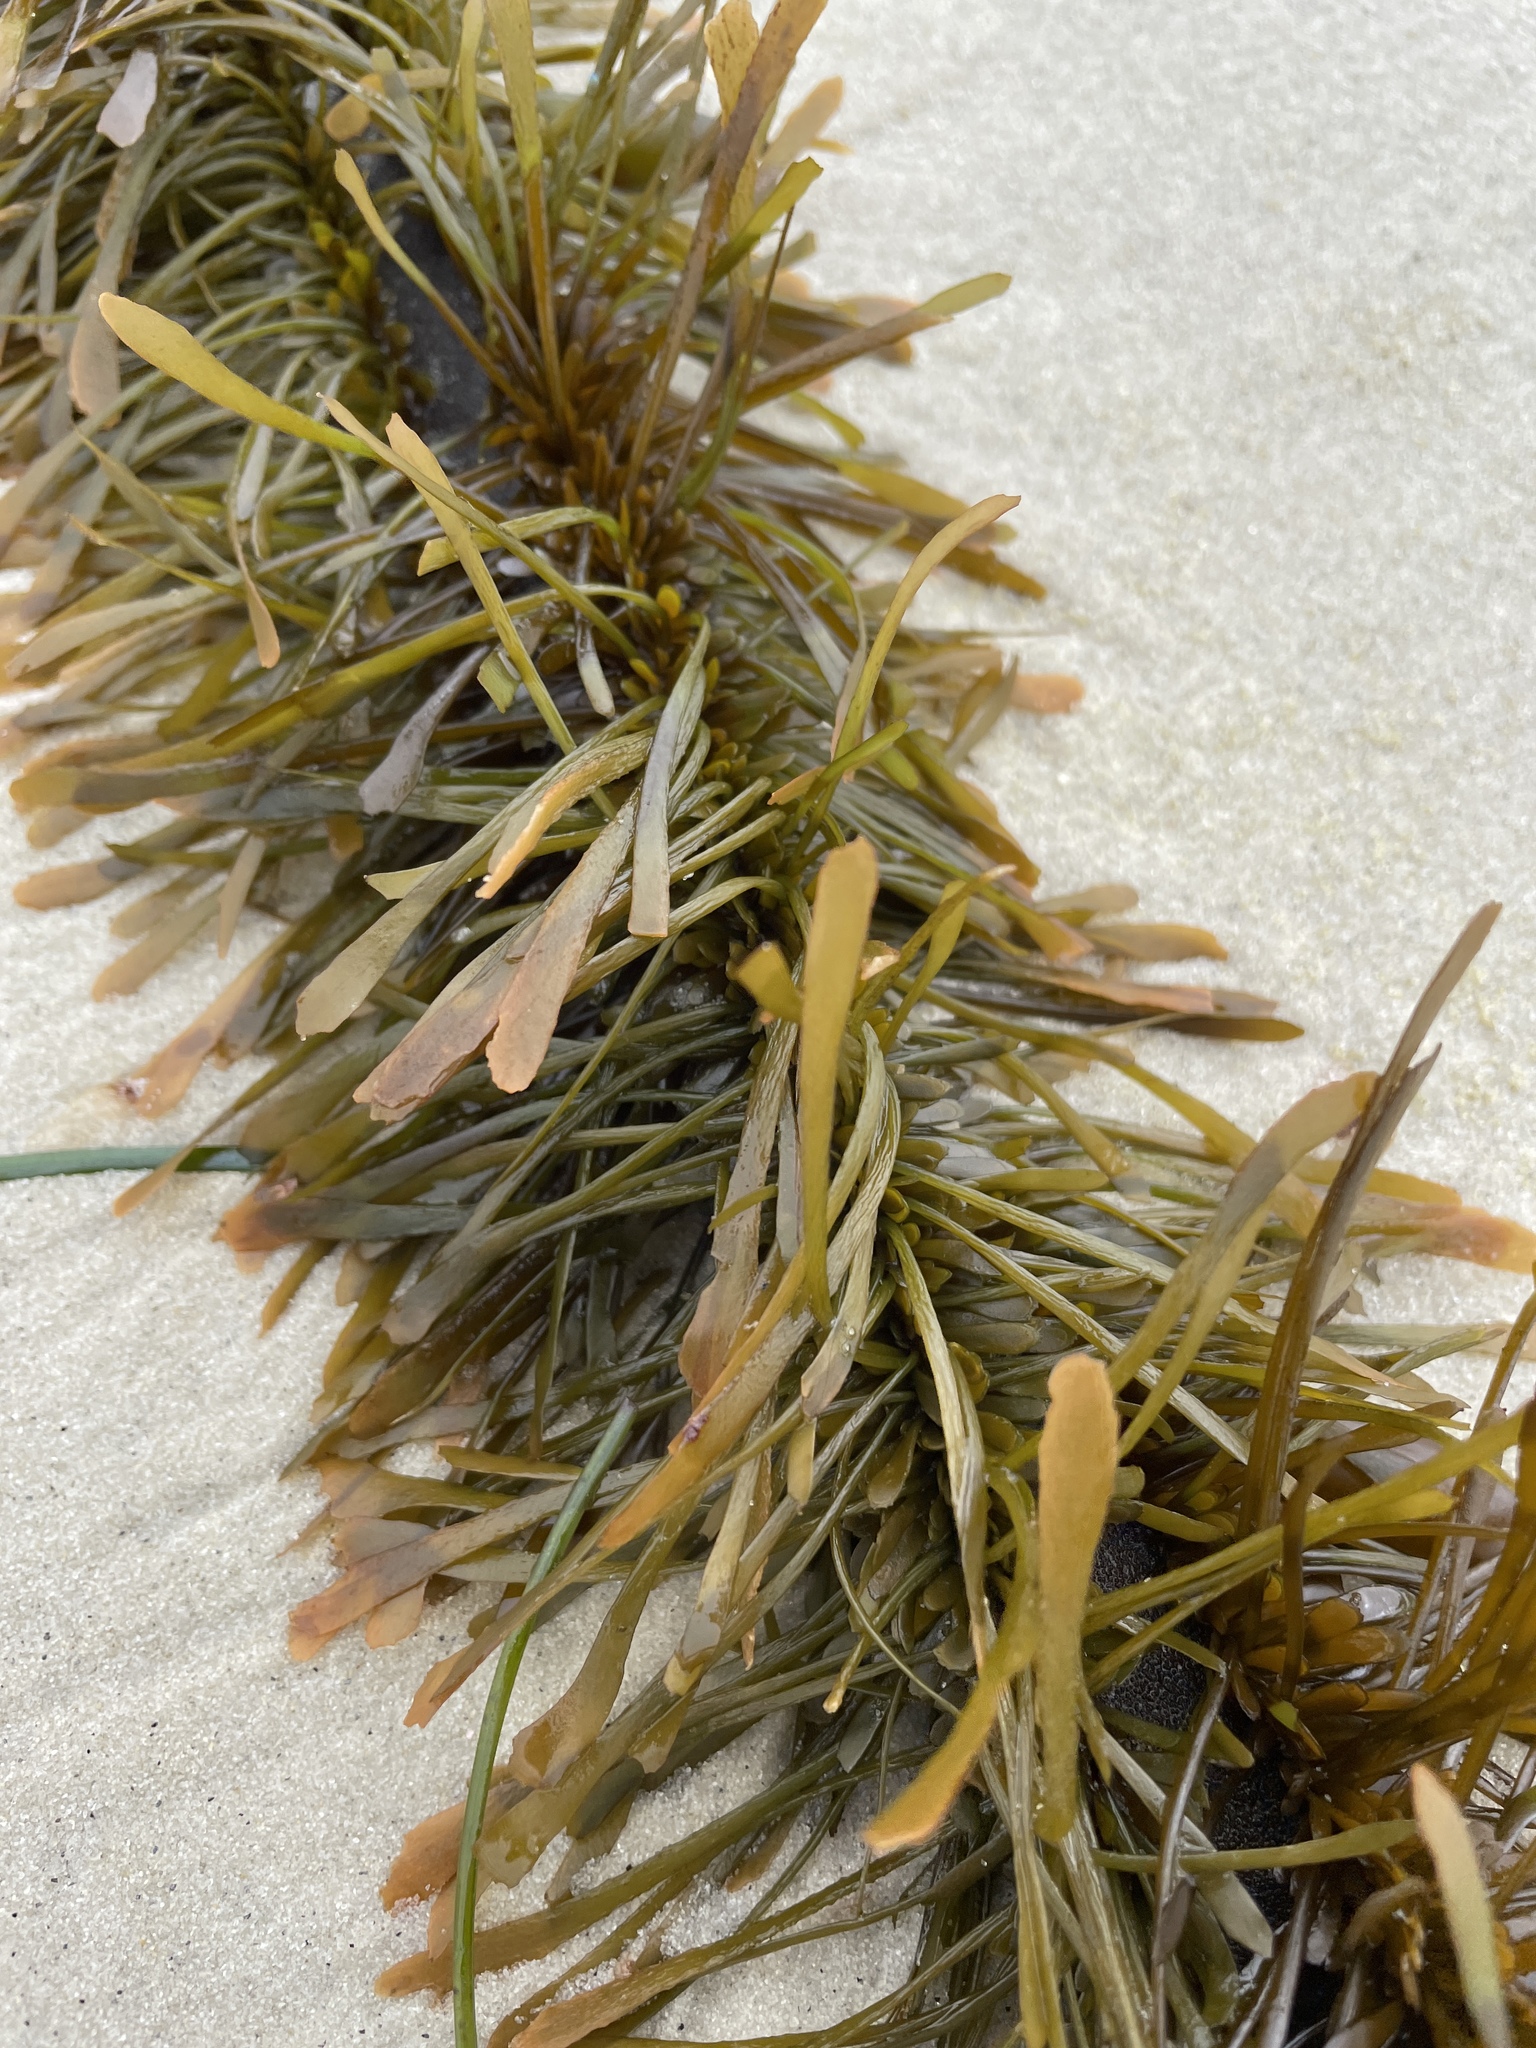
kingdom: Chromista
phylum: Ochrophyta
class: Phaeophyceae
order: Laminariales
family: Lessoniaceae
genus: Egregia
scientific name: Egregia menziesii
